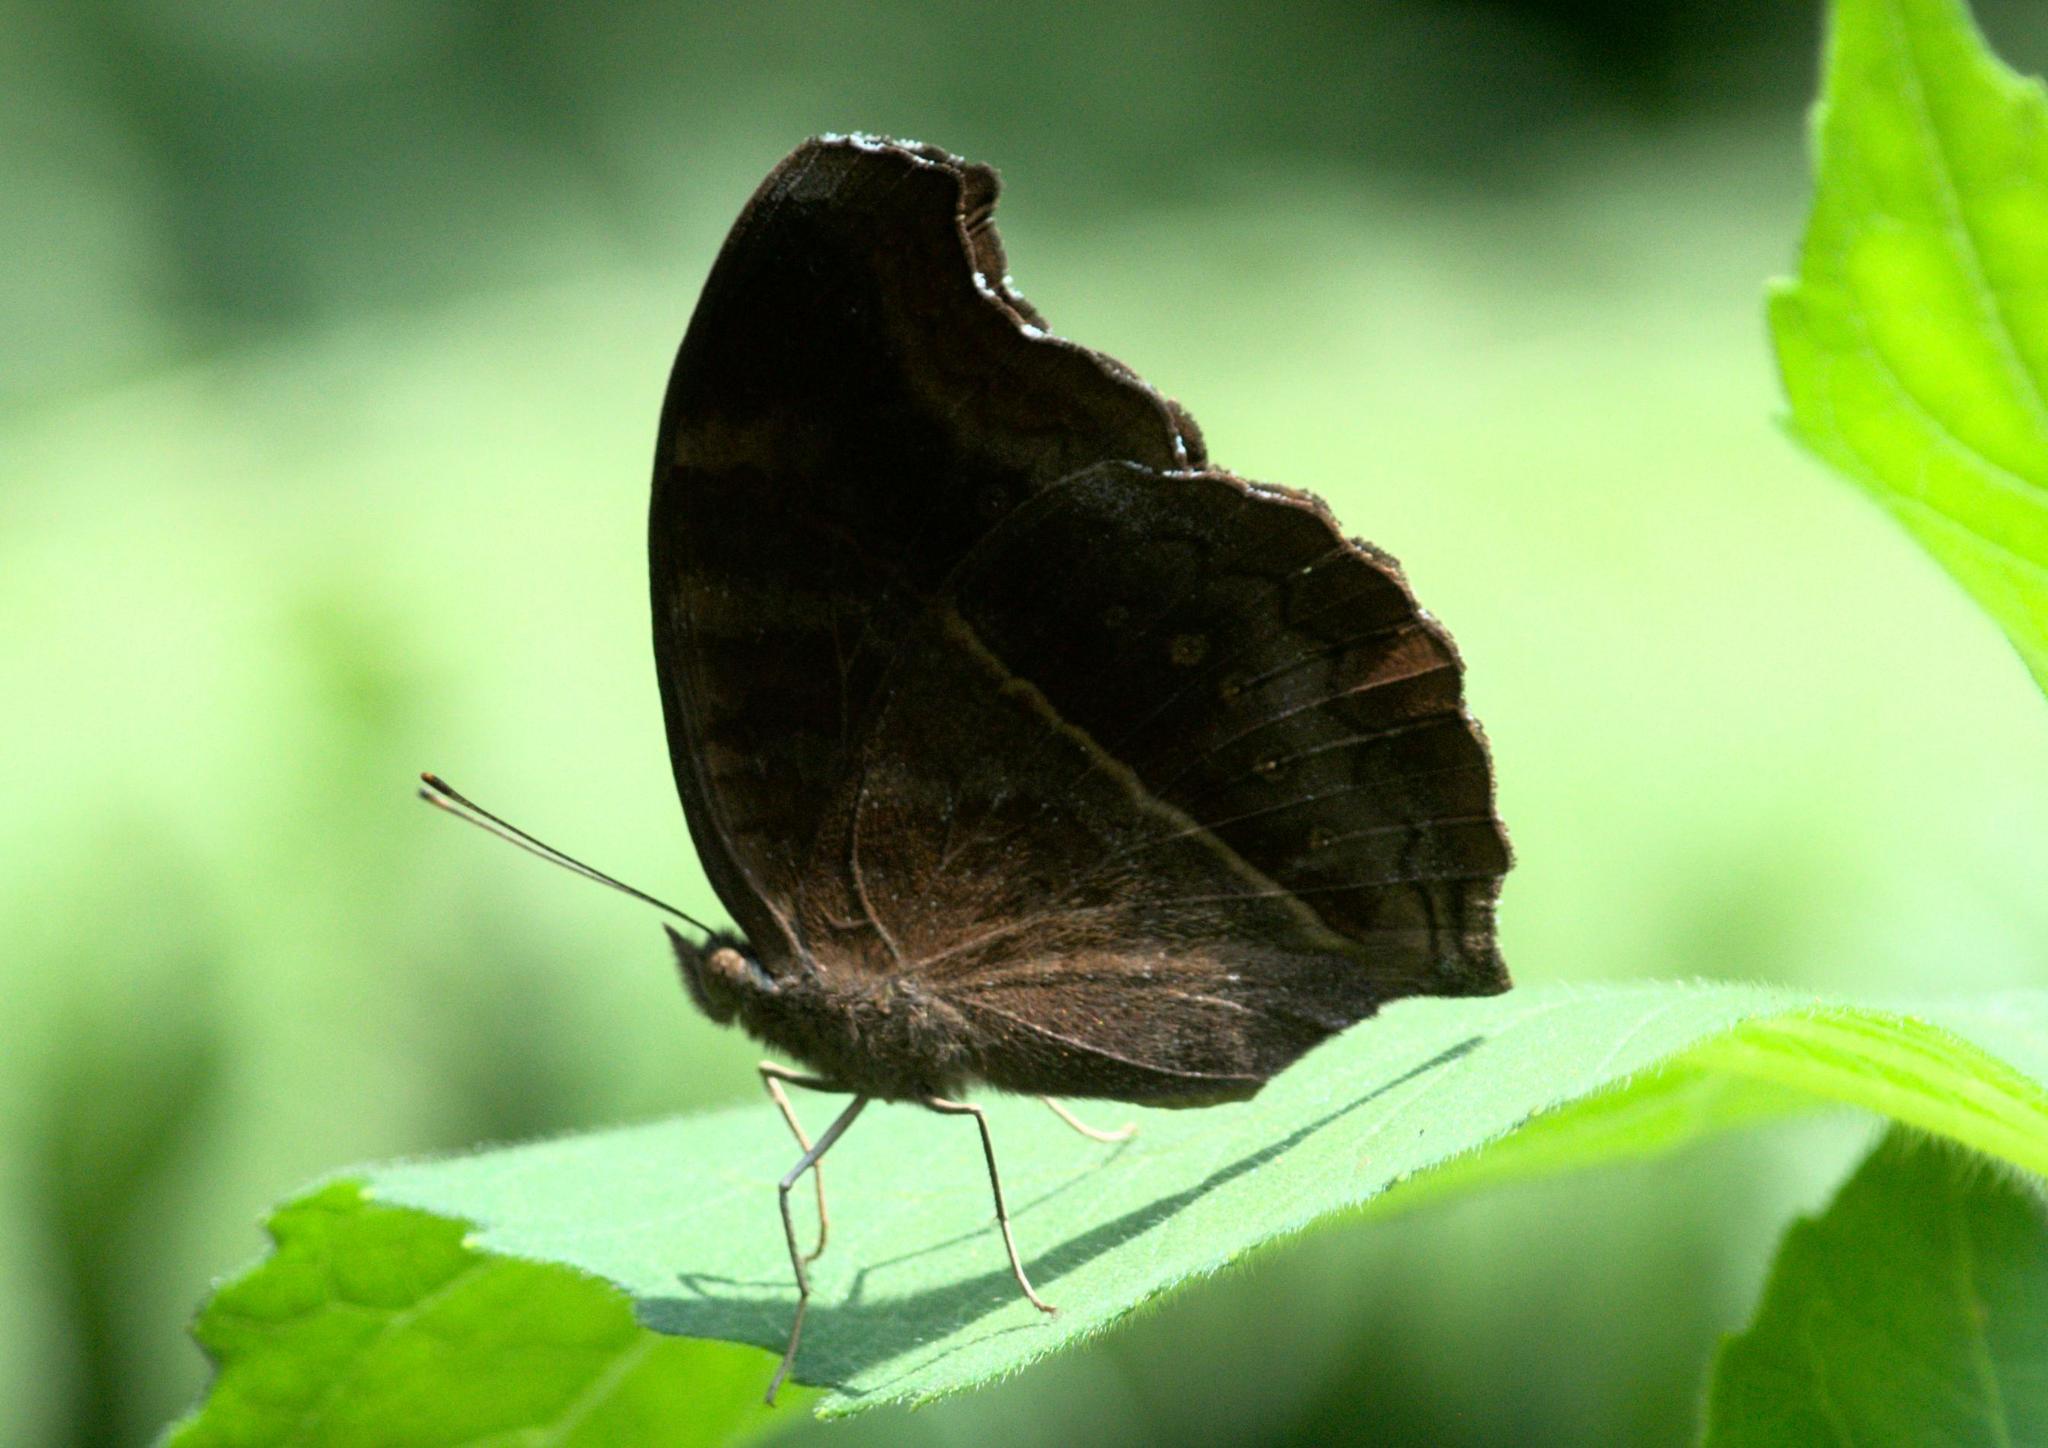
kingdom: Animalia
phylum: Arthropoda
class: Insecta
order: Lepidoptera
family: Nymphalidae
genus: Junonia
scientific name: Junonia iphita
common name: Chocolate pansy
